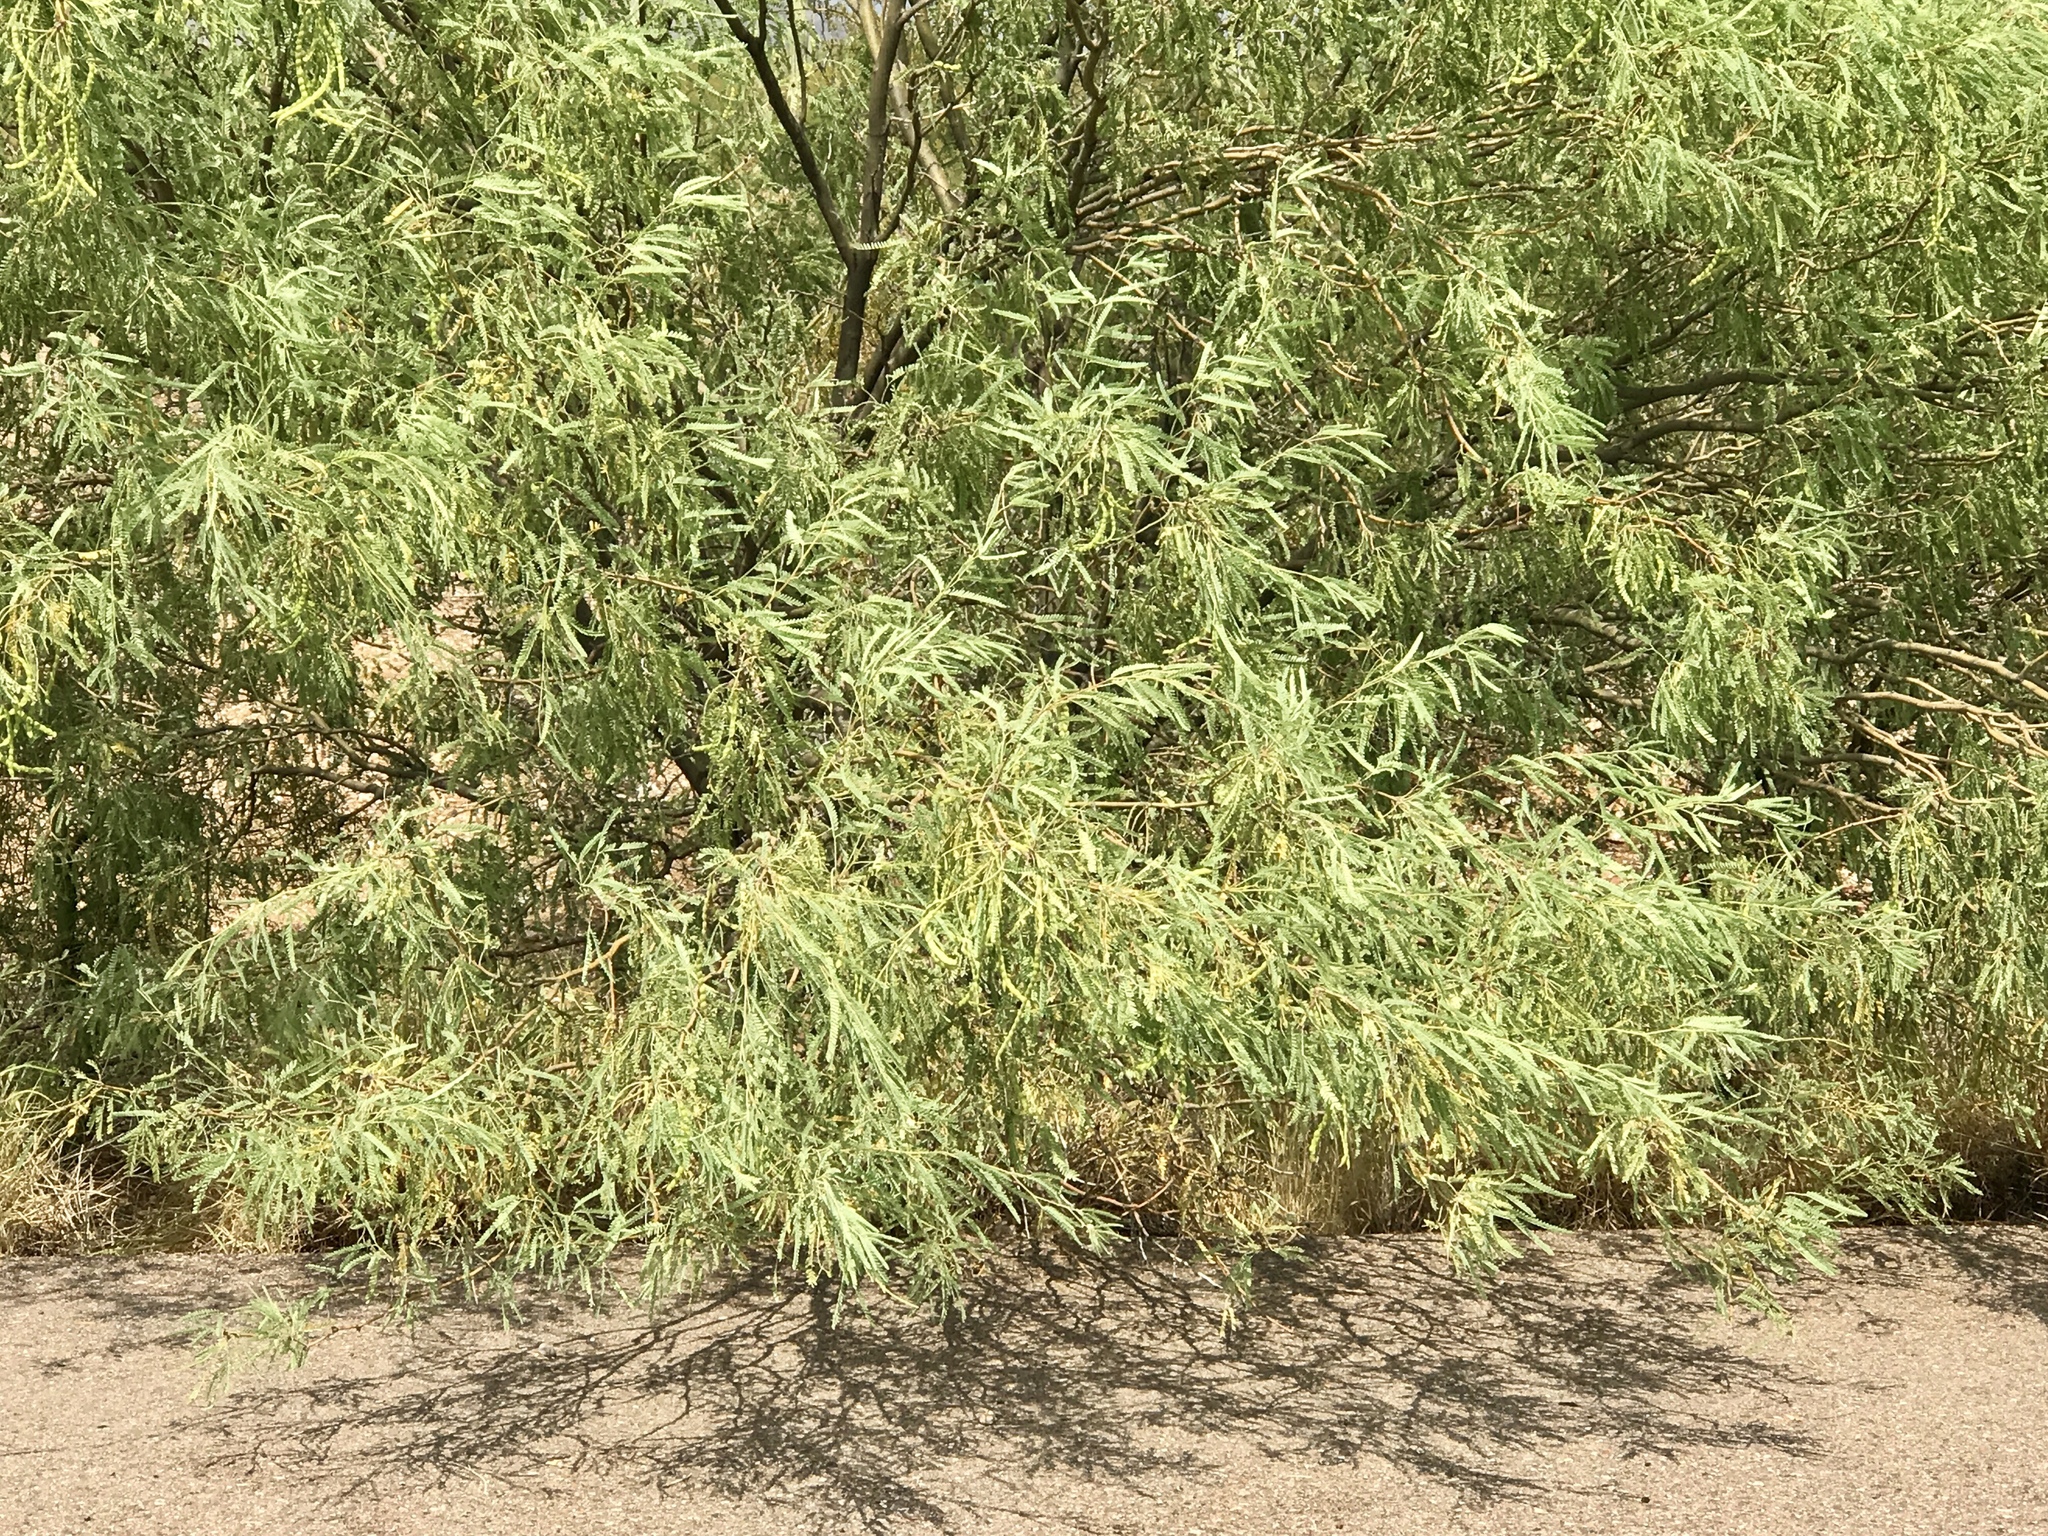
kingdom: Plantae
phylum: Tracheophyta
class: Magnoliopsida
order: Fabales
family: Fabaceae
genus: Prosopis
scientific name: Prosopis velutina
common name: Velvet mesquite
